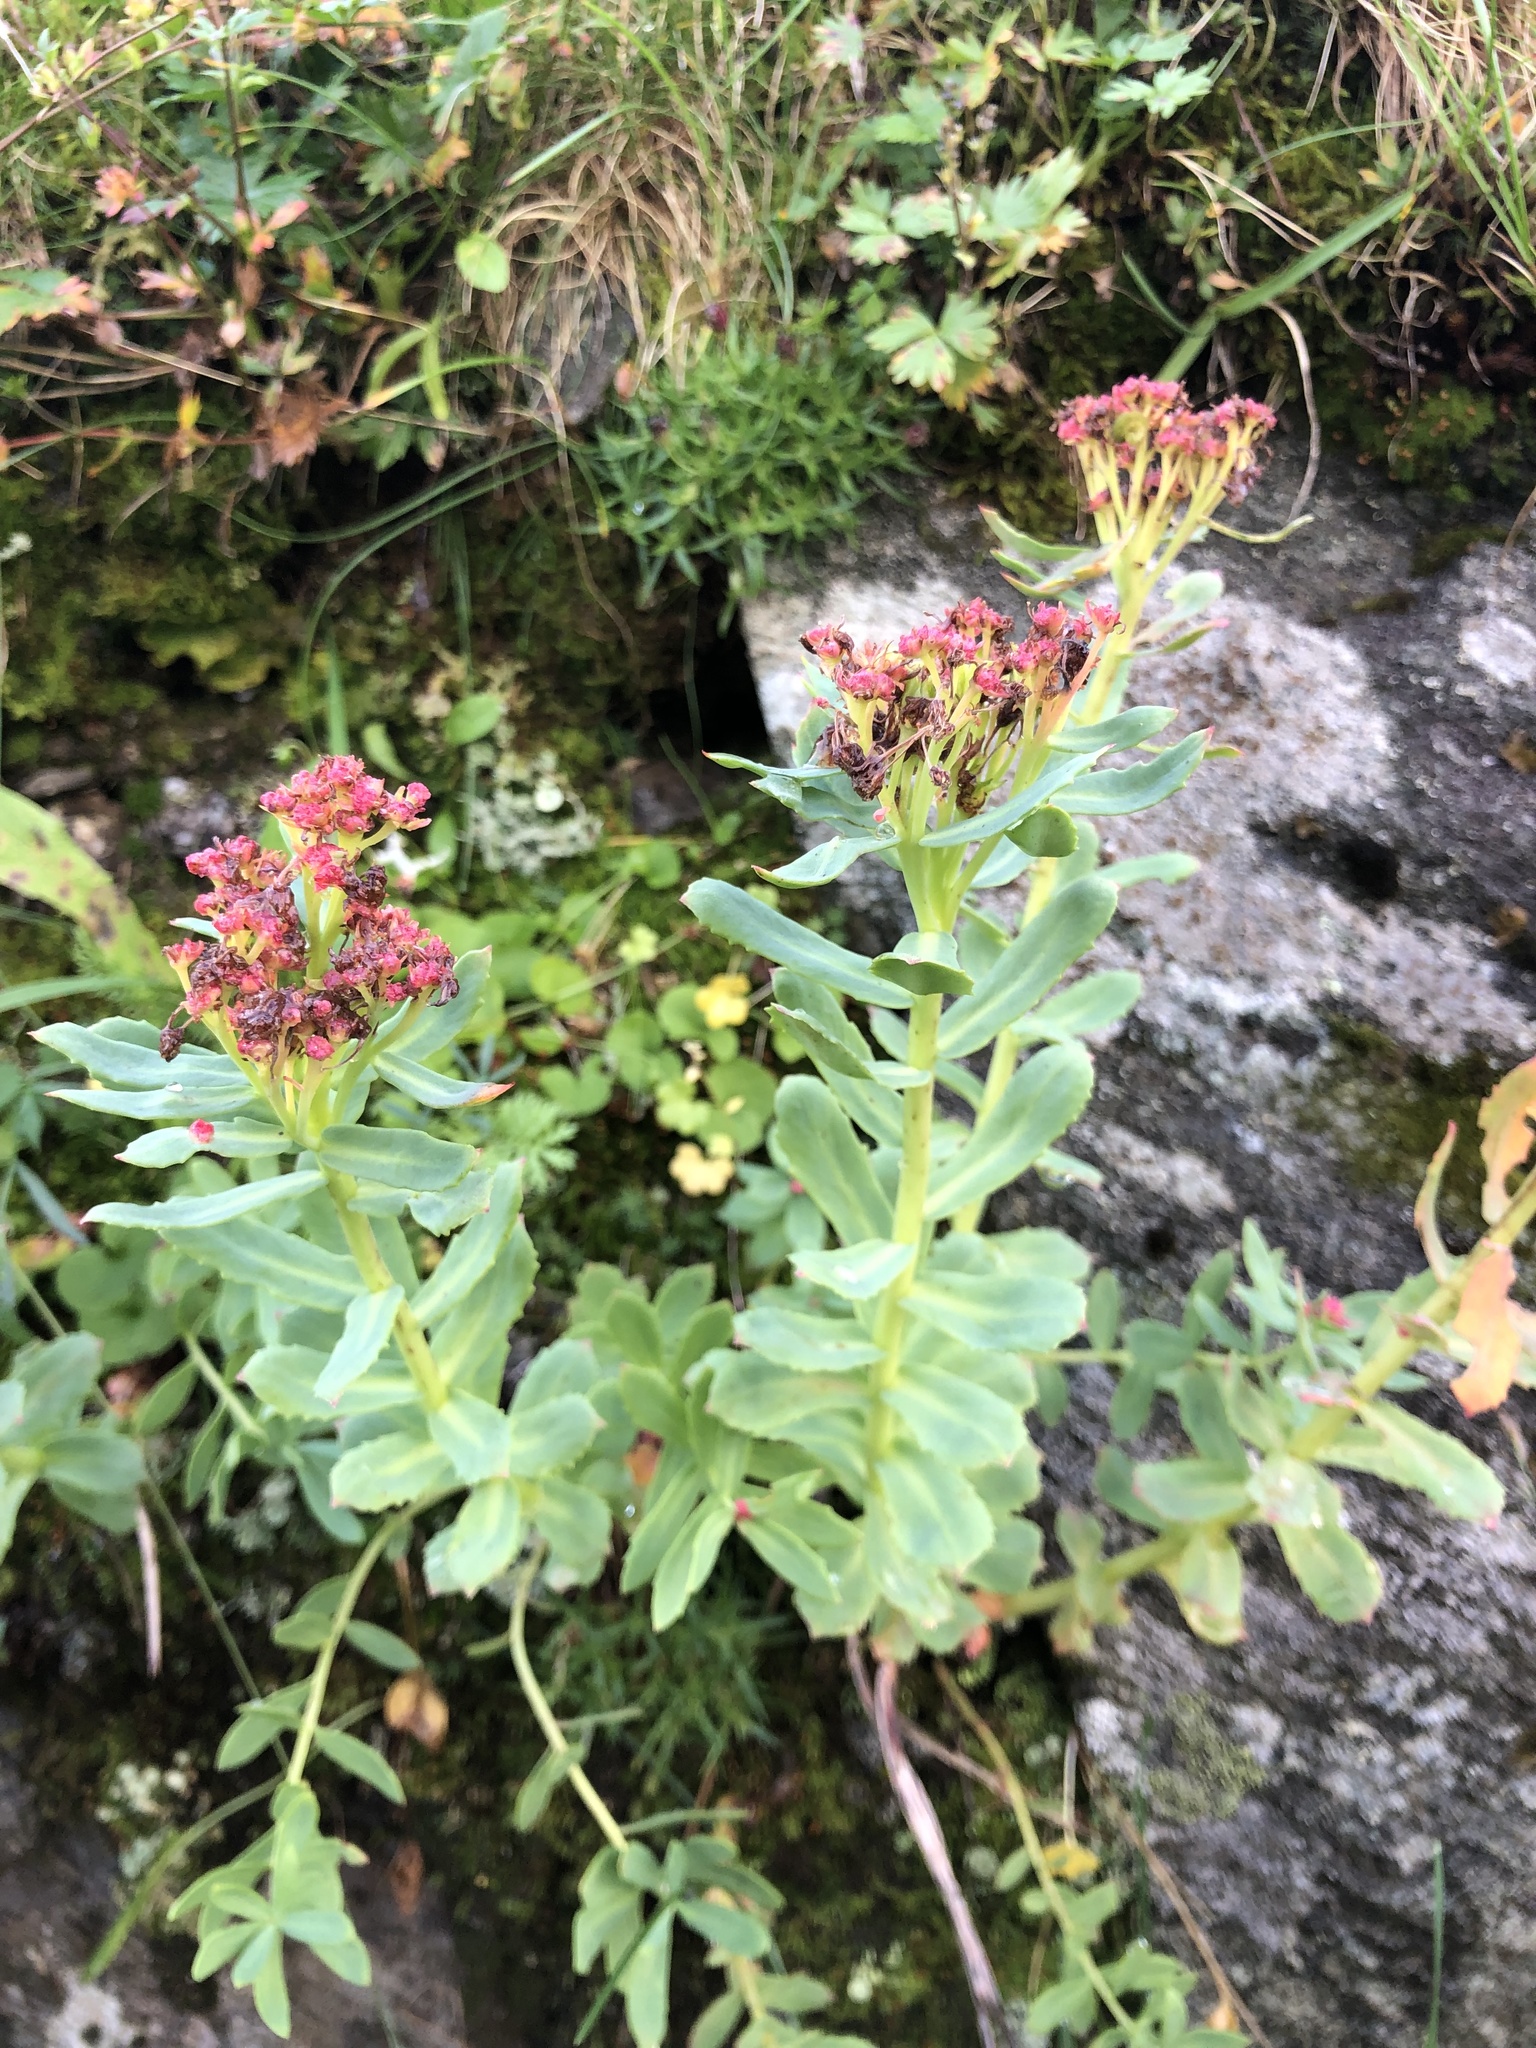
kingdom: Plantae
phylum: Tracheophyta
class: Magnoliopsida
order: Saxifragales
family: Crassulaceae
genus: Rhodiola
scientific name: Rhodiola rosea
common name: Roseroot
